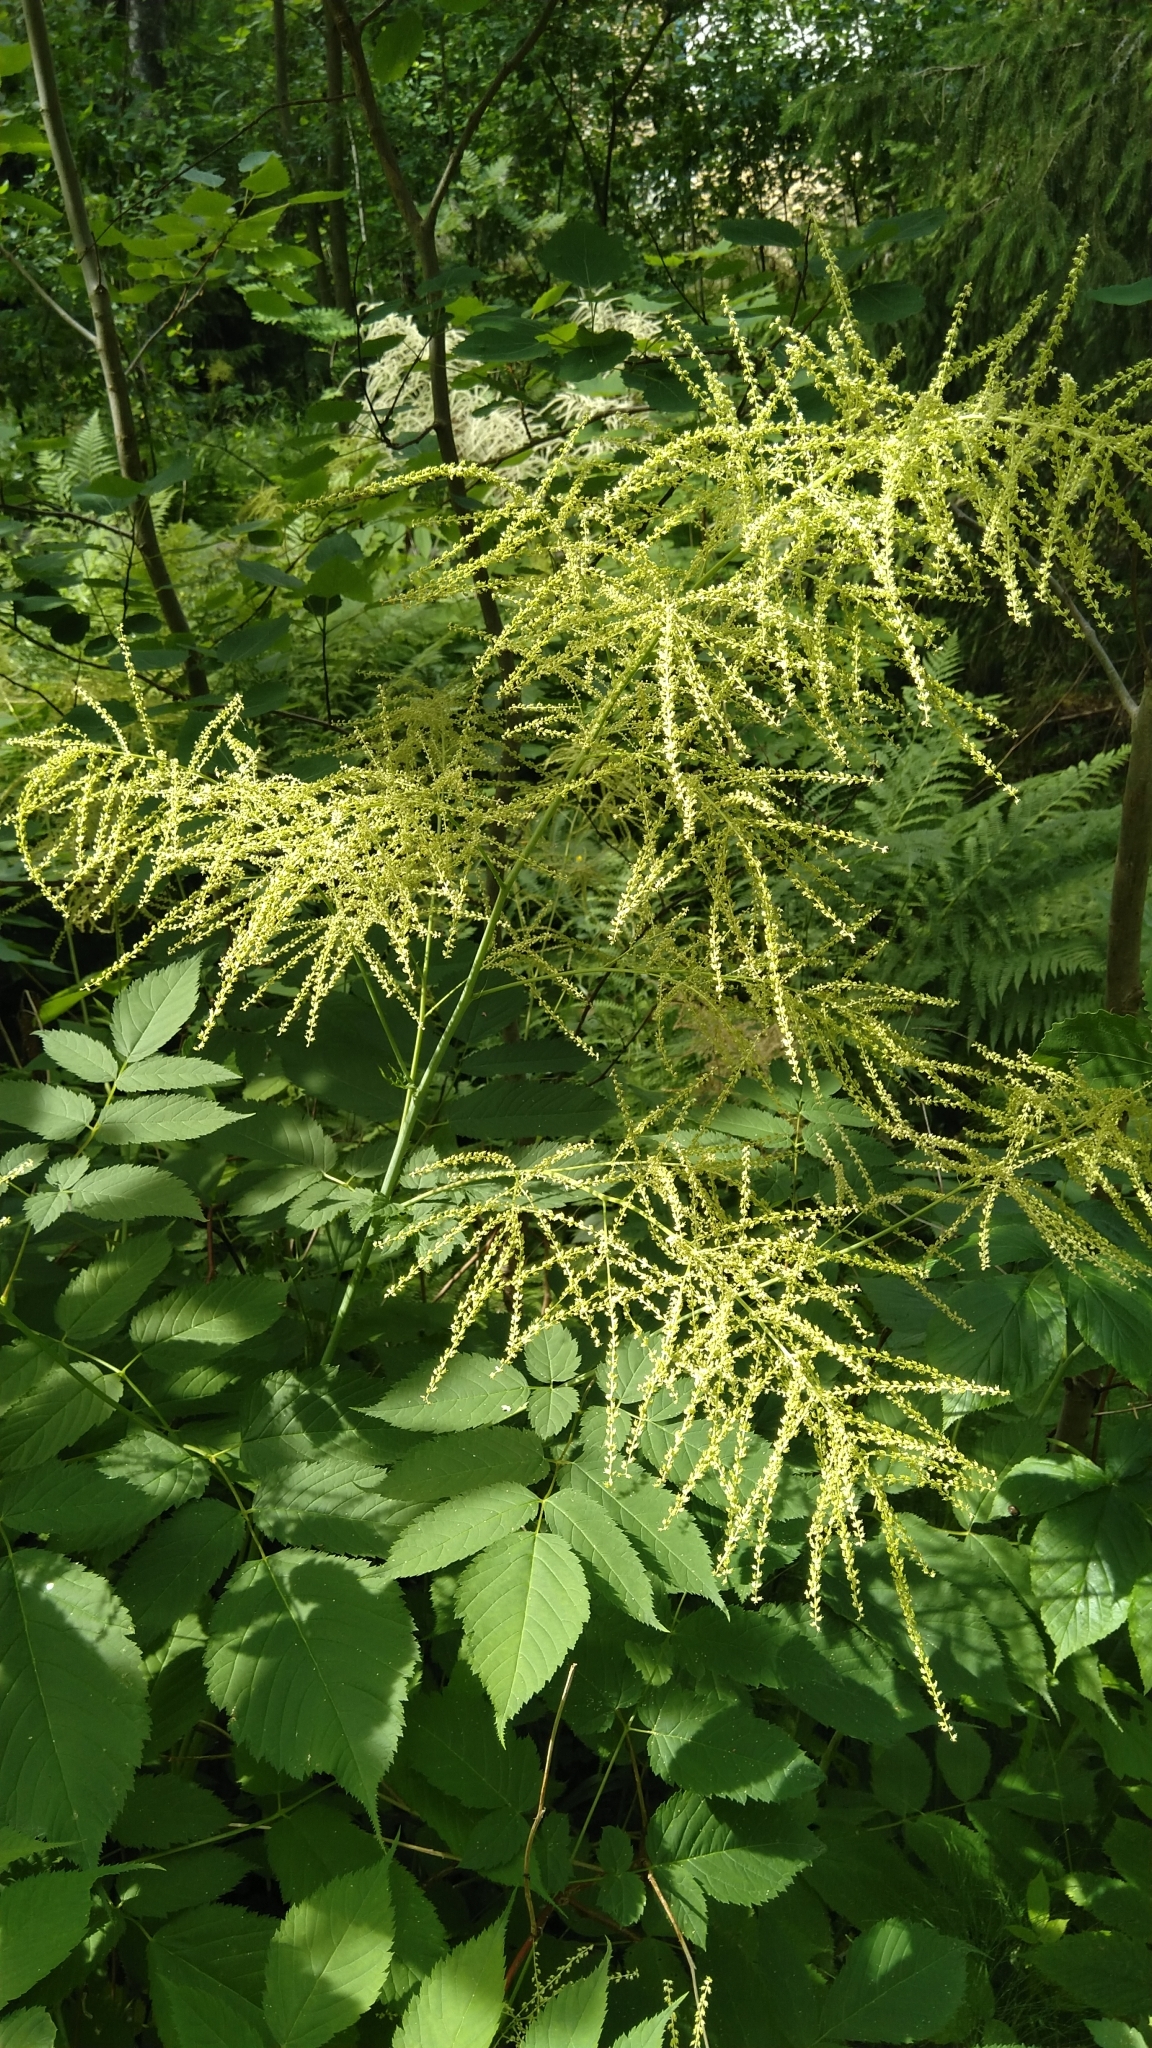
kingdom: Plantae
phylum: Tracheophyta
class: Magnoliopsida
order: Rosales
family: Rosaceae
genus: Aruncus
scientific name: Aruncus dioicus
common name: Buck's-beard
